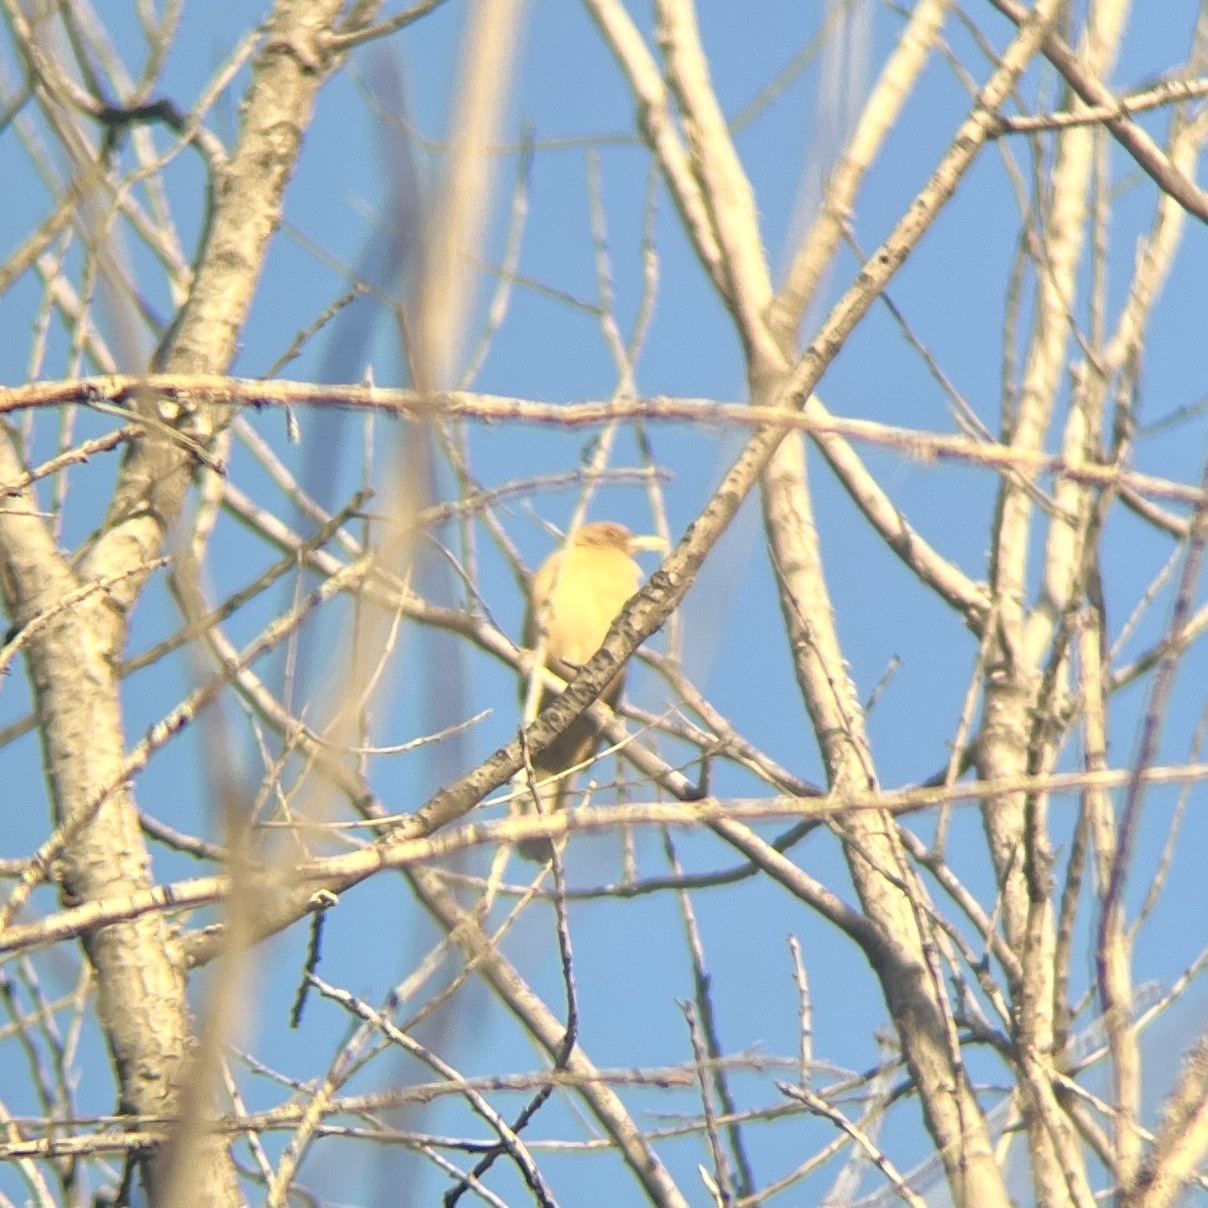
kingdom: Animalia
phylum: Chordata
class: Aves
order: Passeriformes
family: Turdidae
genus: Turdus
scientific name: Turdus grayi
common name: Clay-colored thrush
